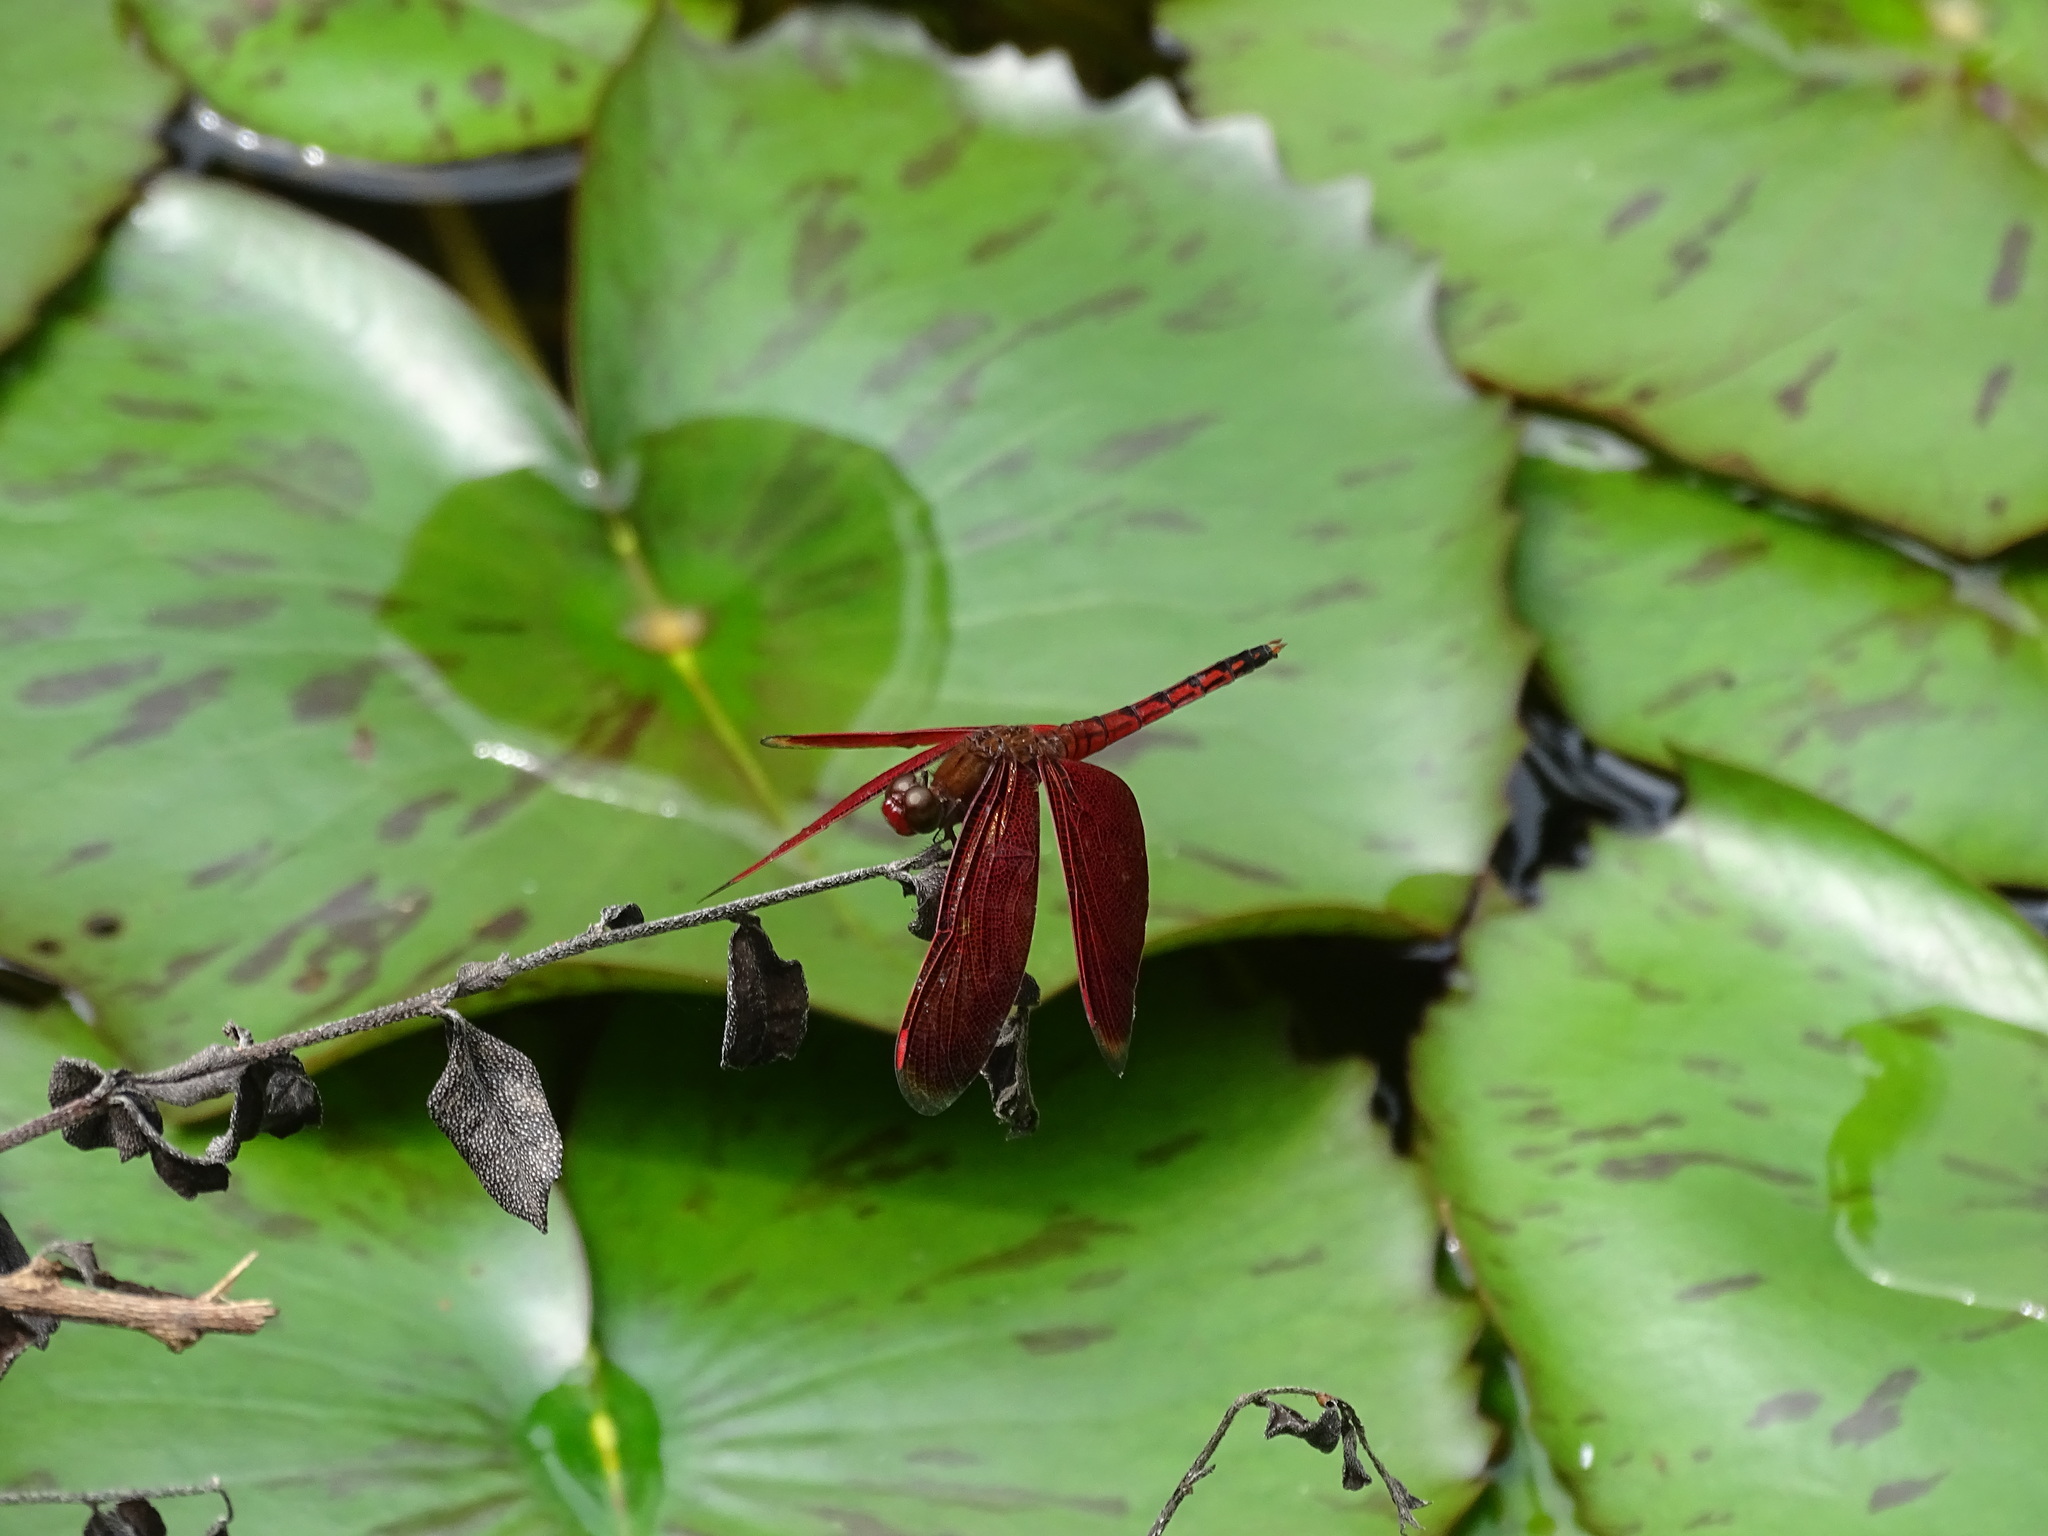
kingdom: Animalia
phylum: Arthropoda
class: Insecta
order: Odonata
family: Libellulidae
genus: Neurothemis
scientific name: Neurothemis taiwanensis
